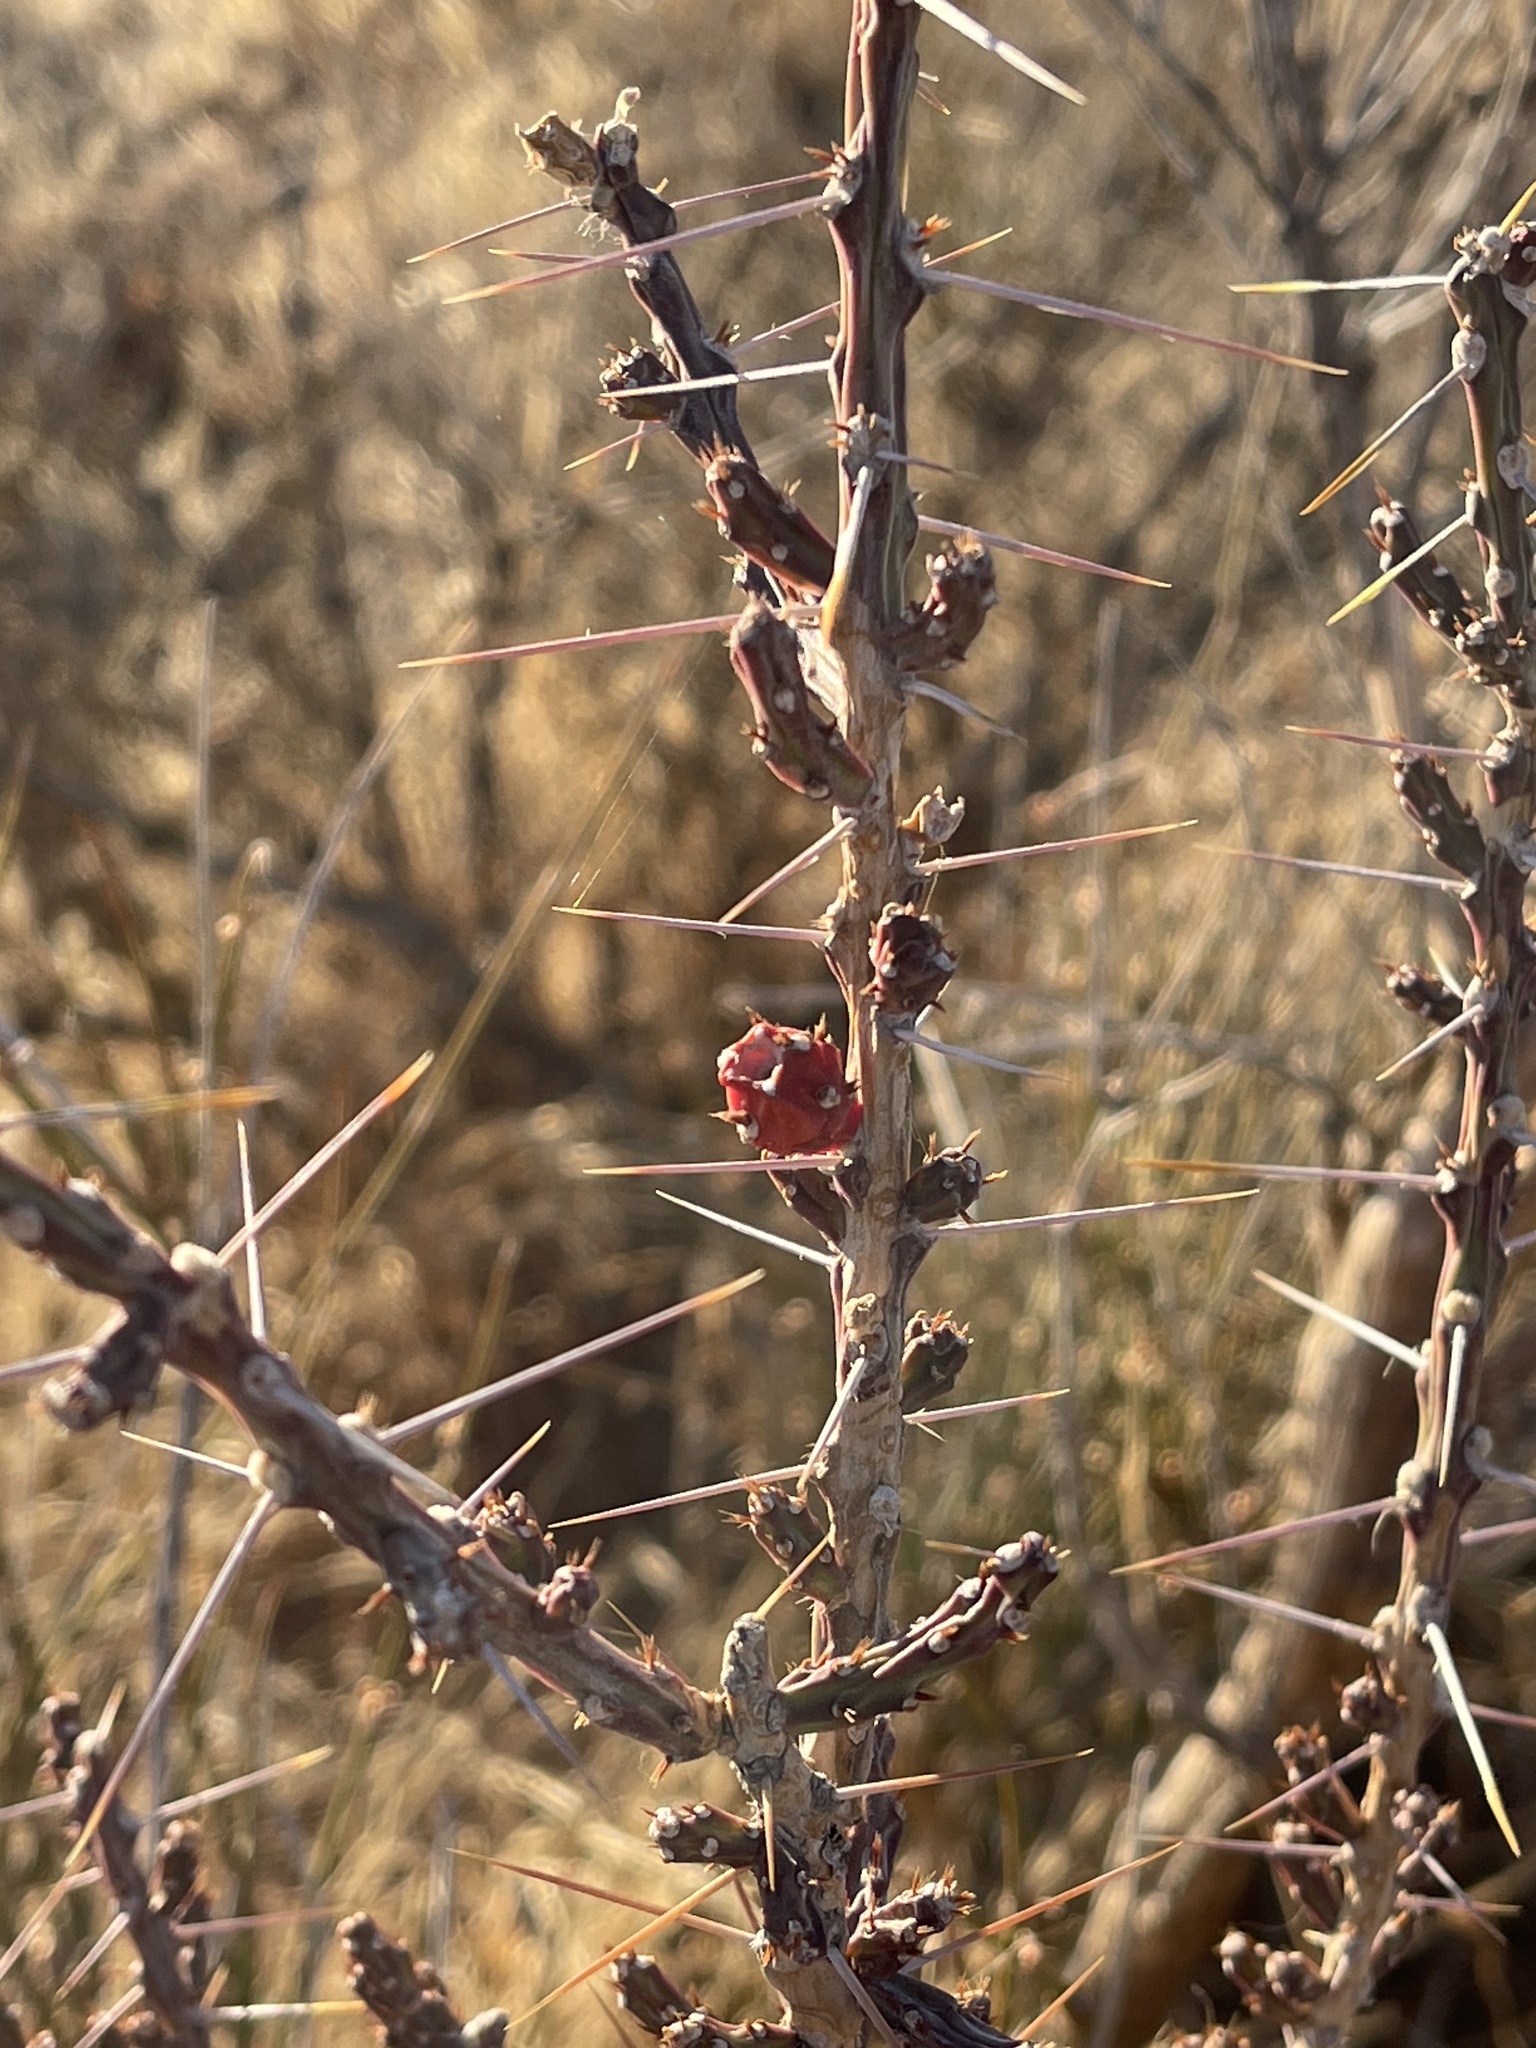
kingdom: Plantae
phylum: Tracheophyta
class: Magnoliopsida
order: Caryophyllales
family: Cactaceae
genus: Cylindropuntia
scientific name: Cylindropuntia leptocaulis
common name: Christmas cactus
